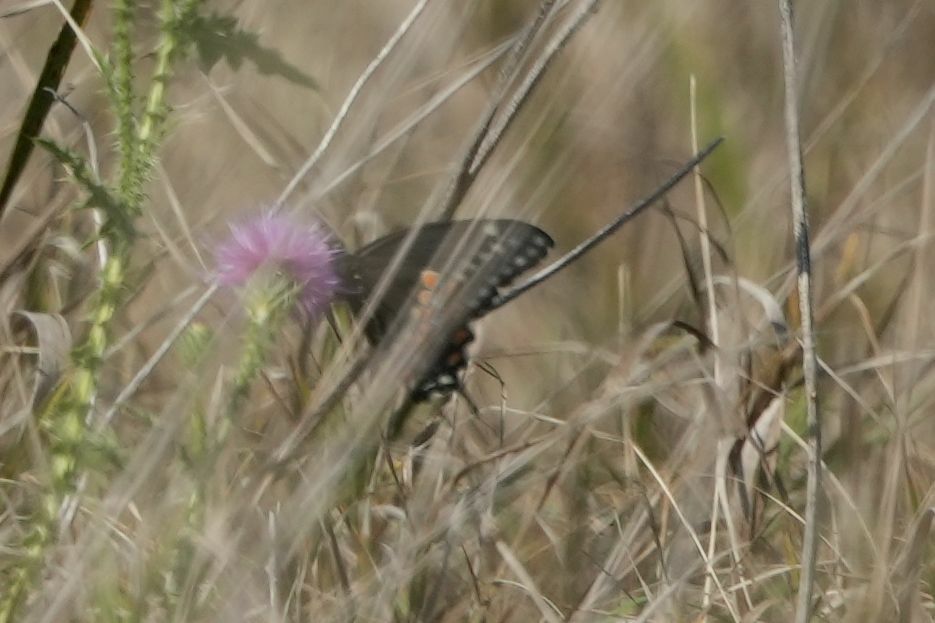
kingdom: Animalia
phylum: Arthropoda
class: Insecta
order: Lepidoptera
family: Papilionidae
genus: Papilio
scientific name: Papilio polyxenes
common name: Black swallowtail
